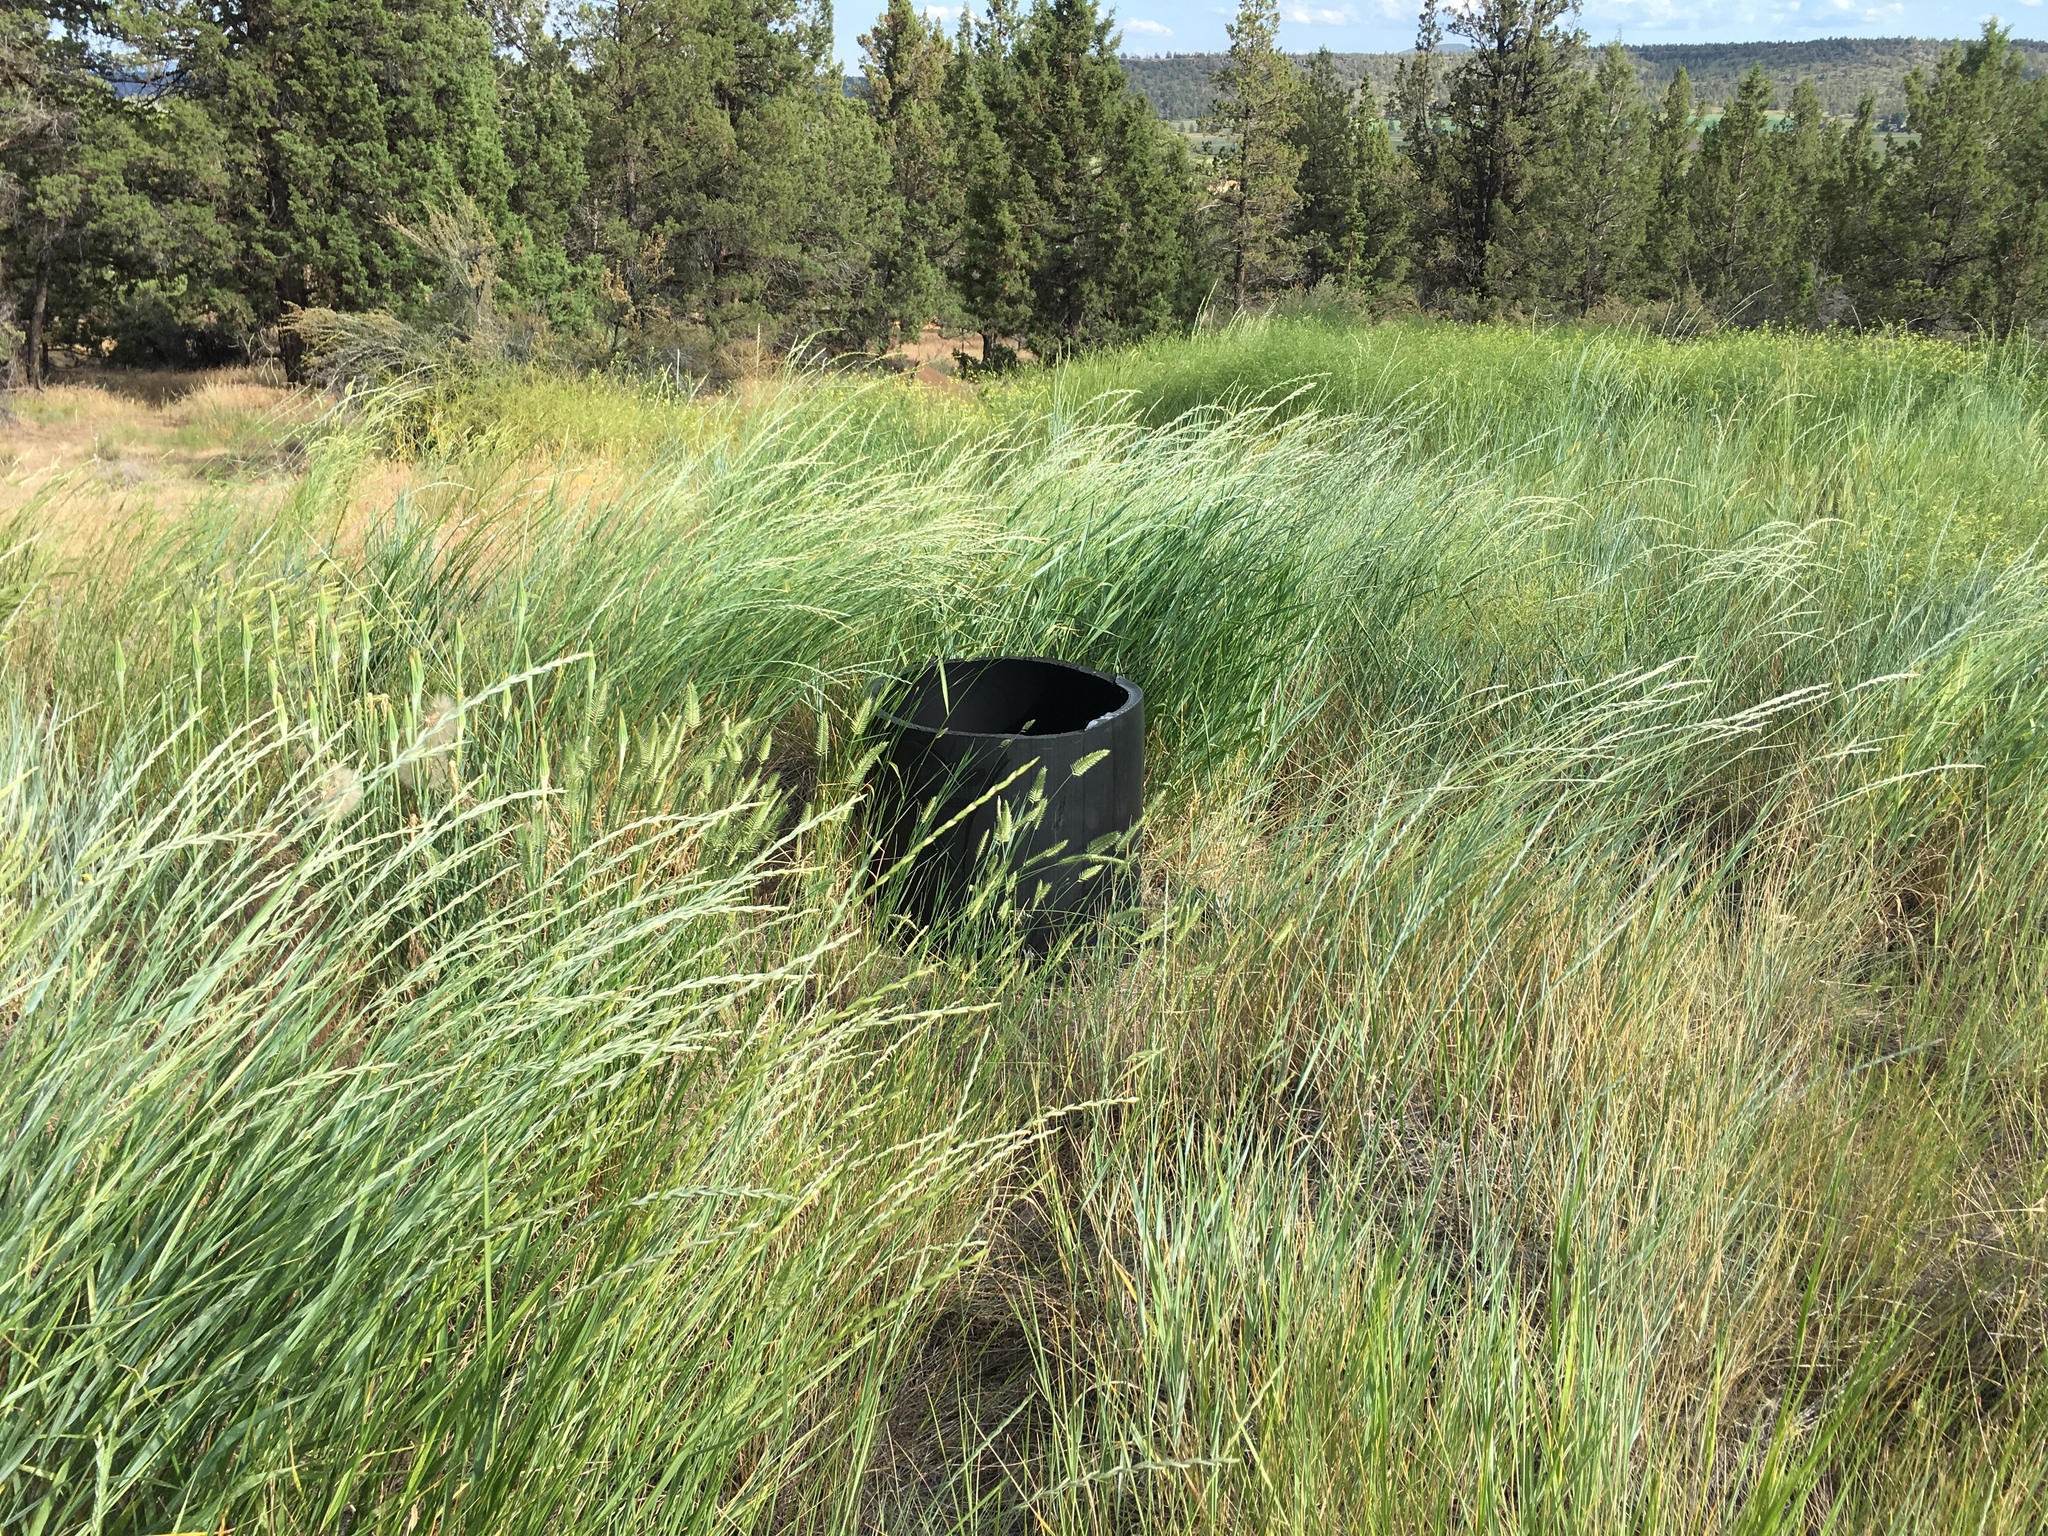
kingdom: Plantae
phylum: Tracheophyta
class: Polypodiopsida
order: Polypodiales
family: Dryopteridaceae
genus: Polystichum
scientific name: Polystichum munitum
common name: Western sword-fern
